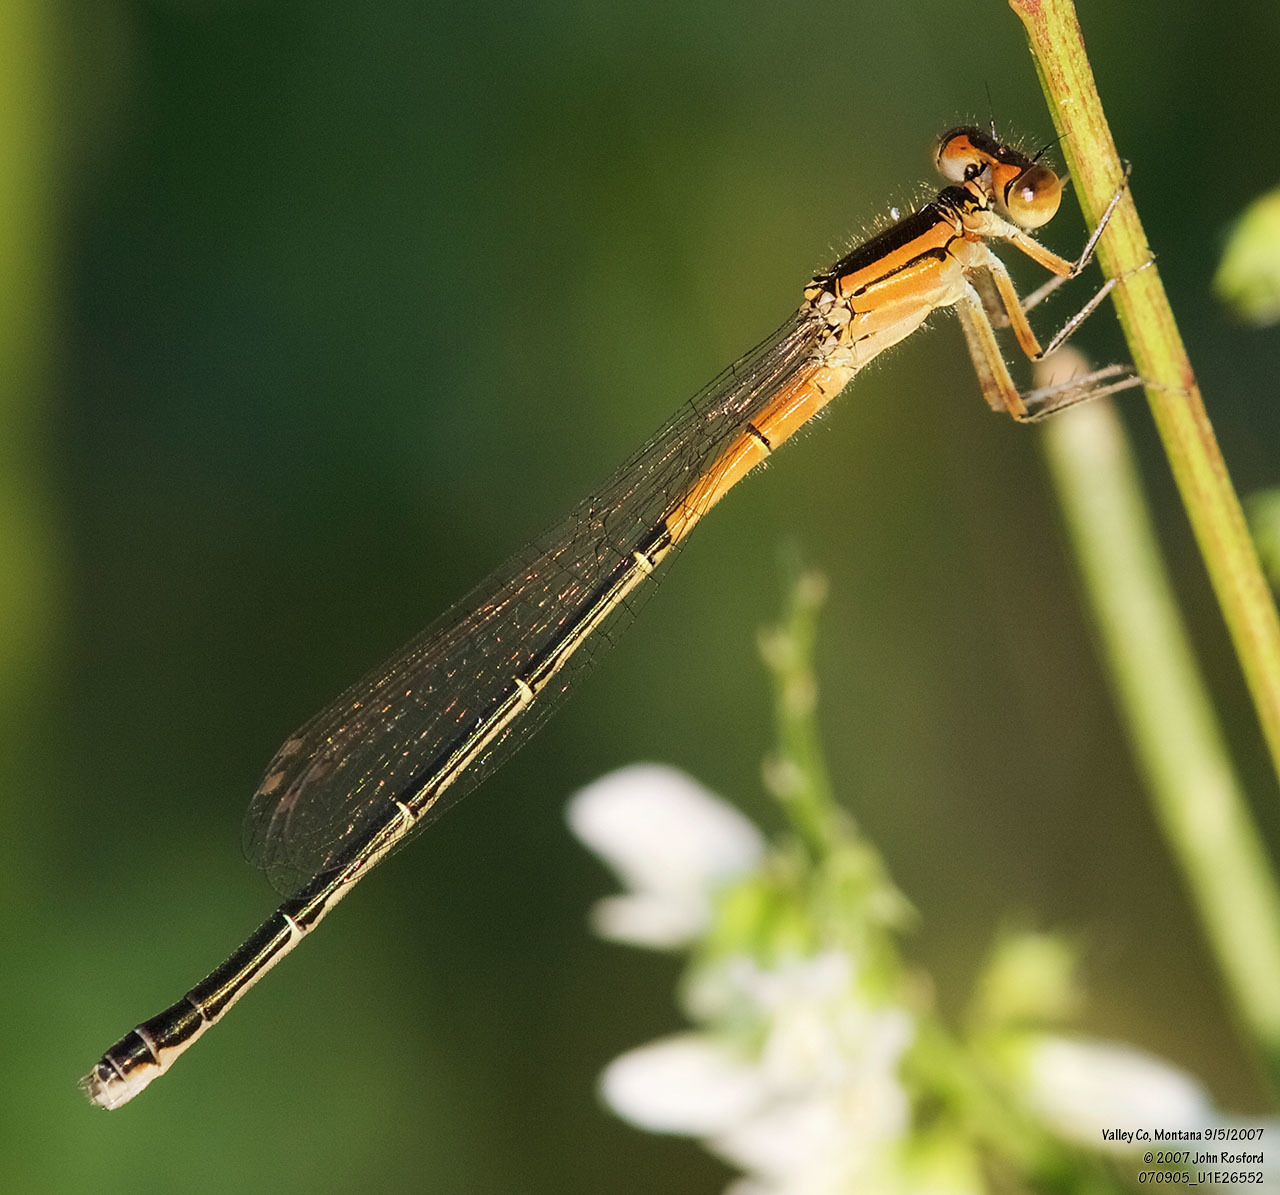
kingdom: Animalia
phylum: Arthropoda
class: Insecta
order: Odonata
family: Coenagrionidae
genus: Ischnura
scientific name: Ischnura verticalis
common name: Eastern forktail
